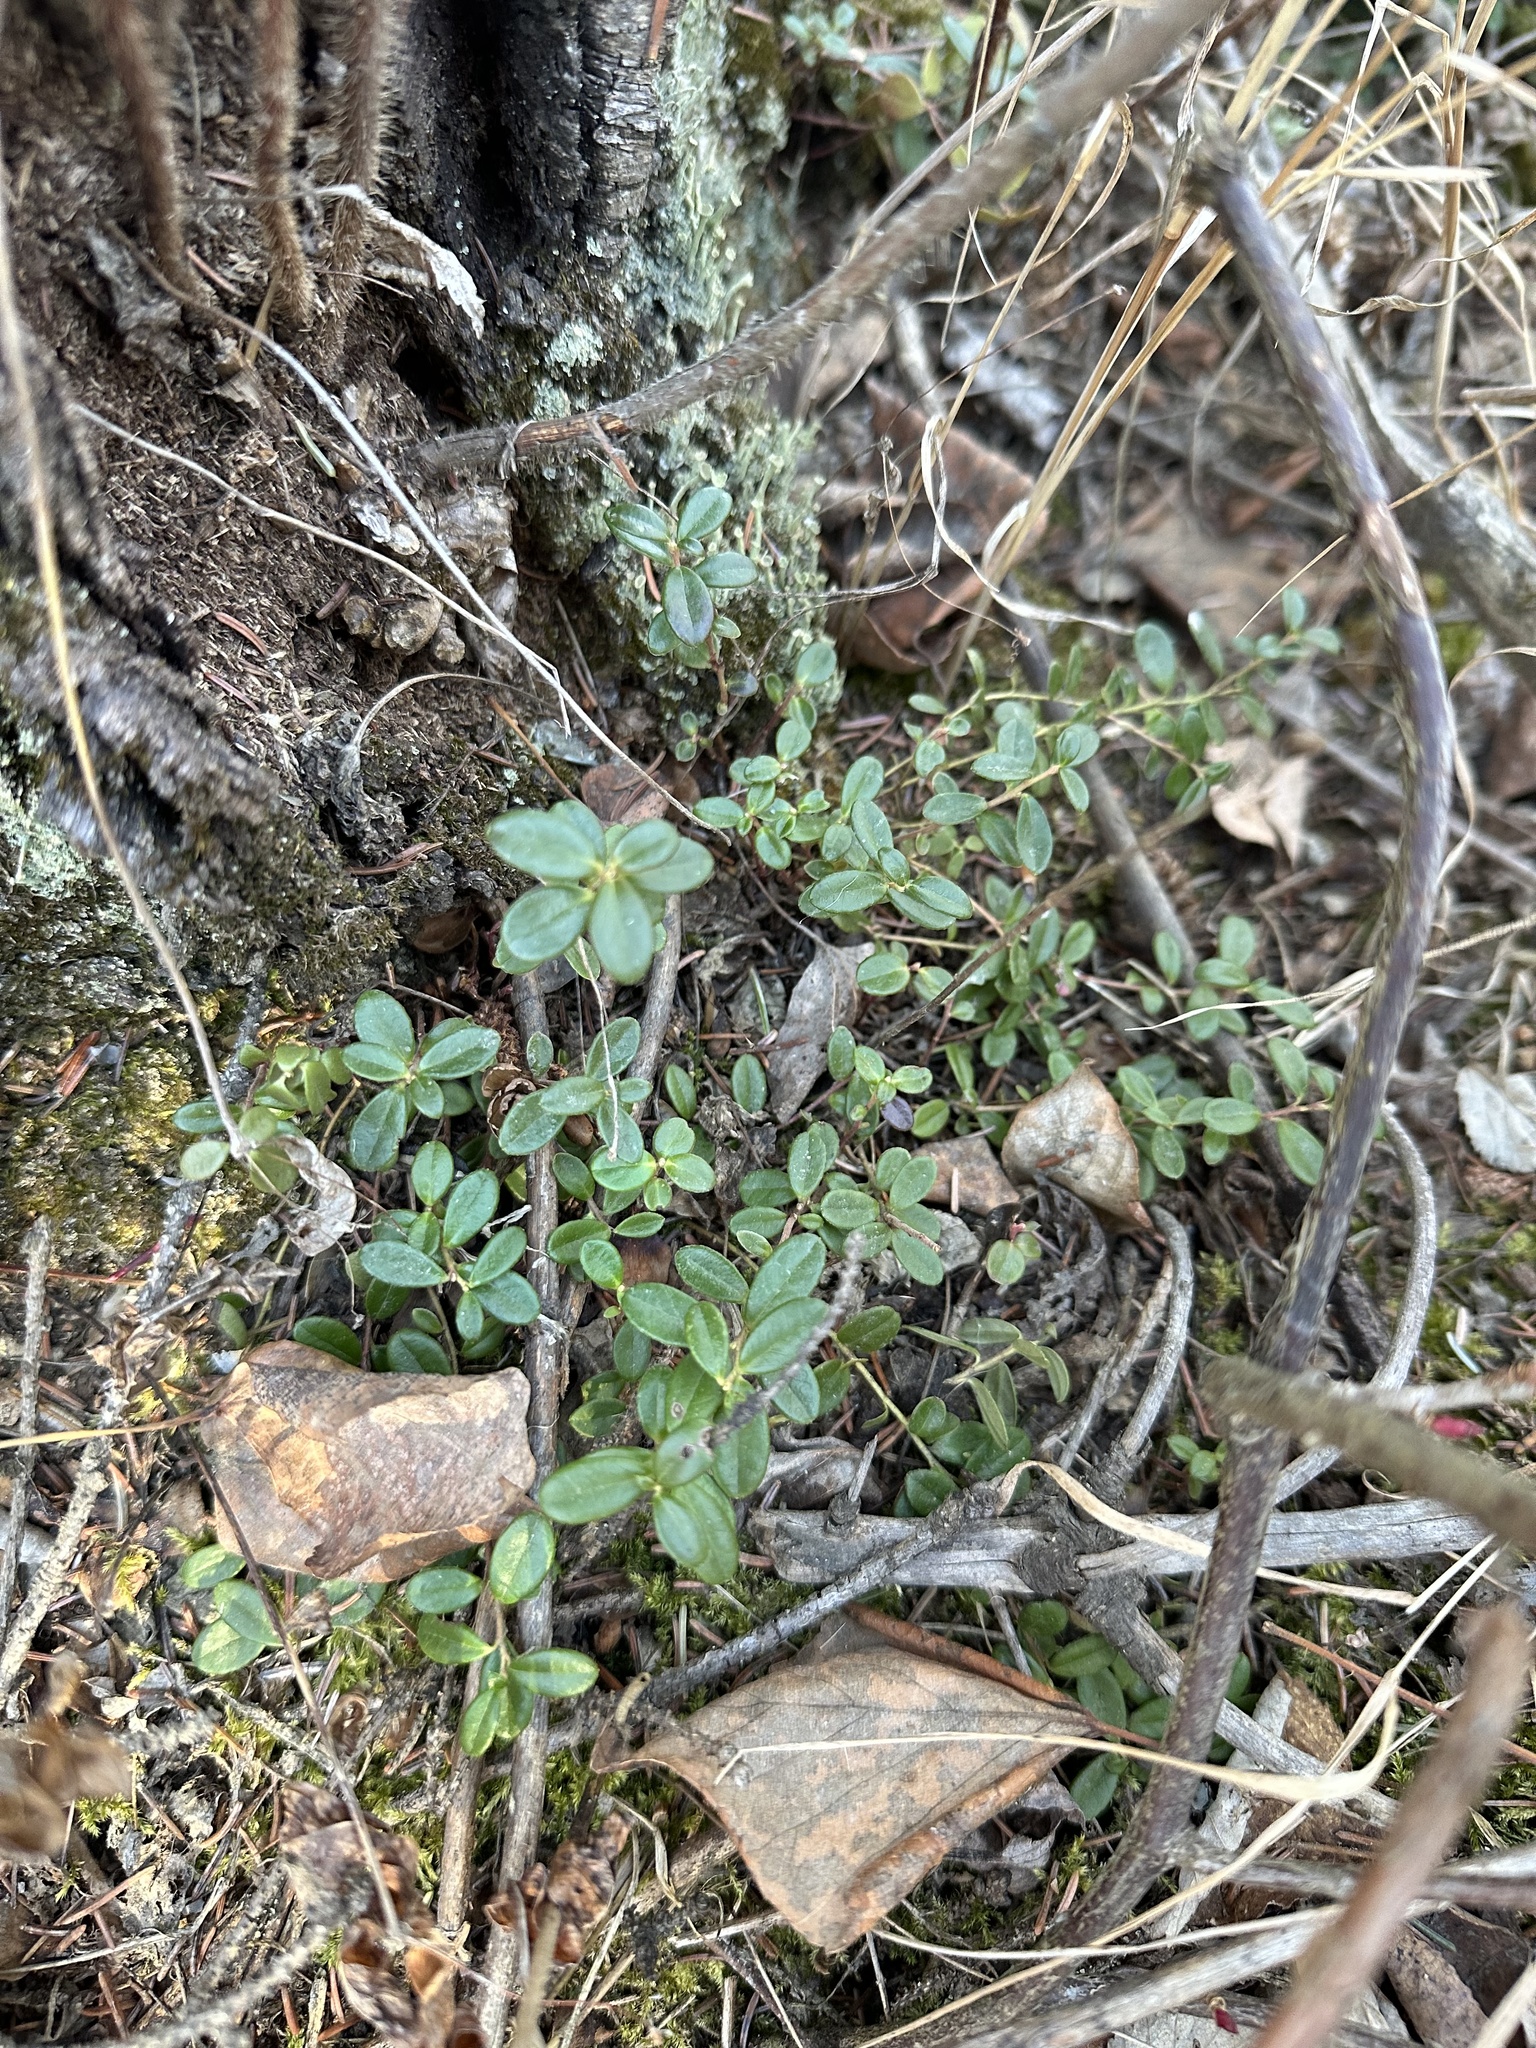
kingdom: Plantae
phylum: Tracheophyta
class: Magnoliopsida
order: Ericales
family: Ericaceae
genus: Vaccinium
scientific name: Vaccinium vitis-idaea
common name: Cowberry
